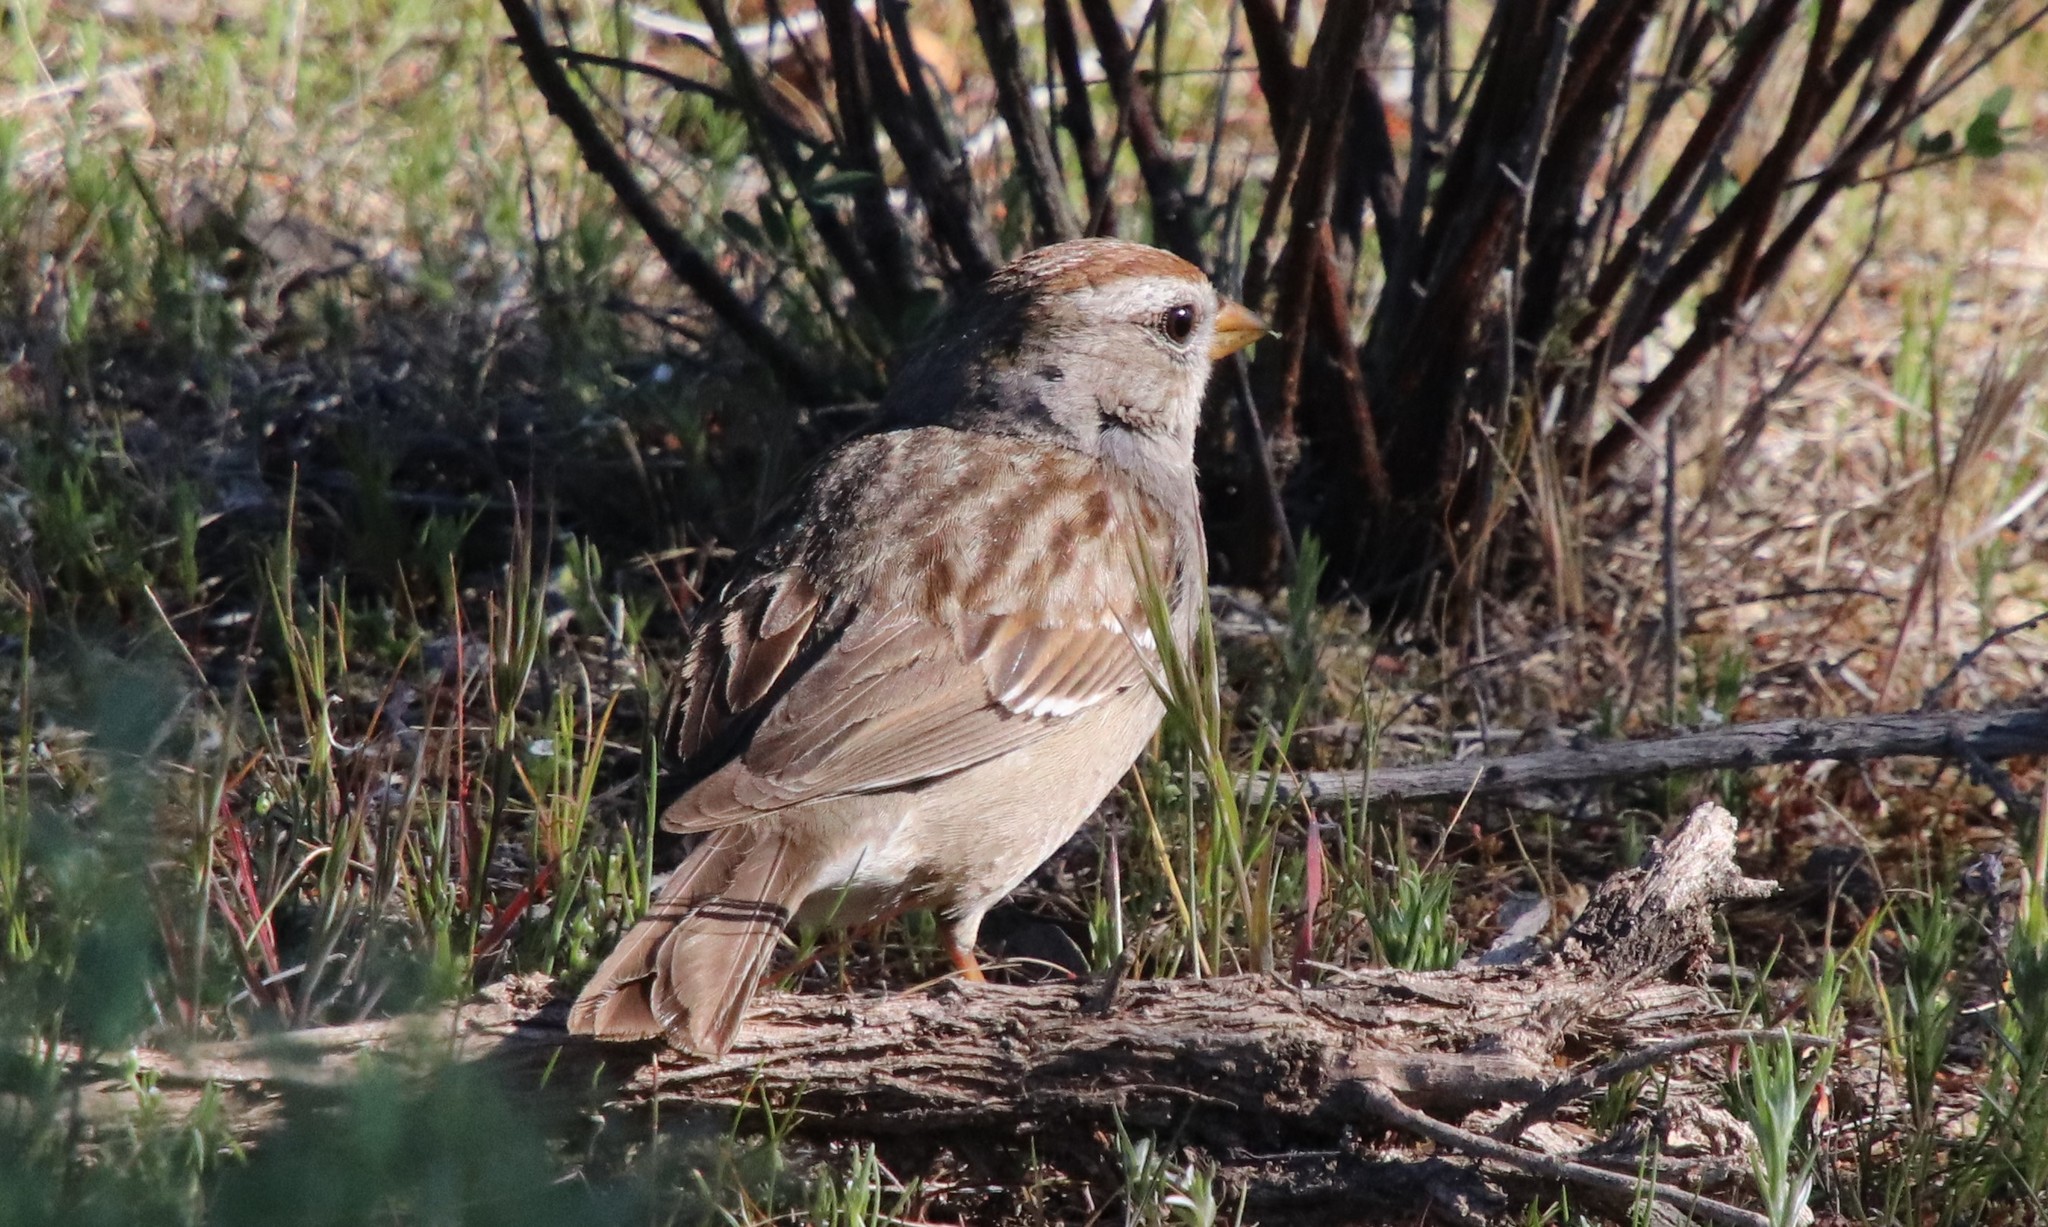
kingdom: Animalia
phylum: Chordata
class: Aves
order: Passeriformes
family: Passerellidae
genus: Zonotrichia
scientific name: Zonotrichia leucophrys
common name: White-crowned sparrow
